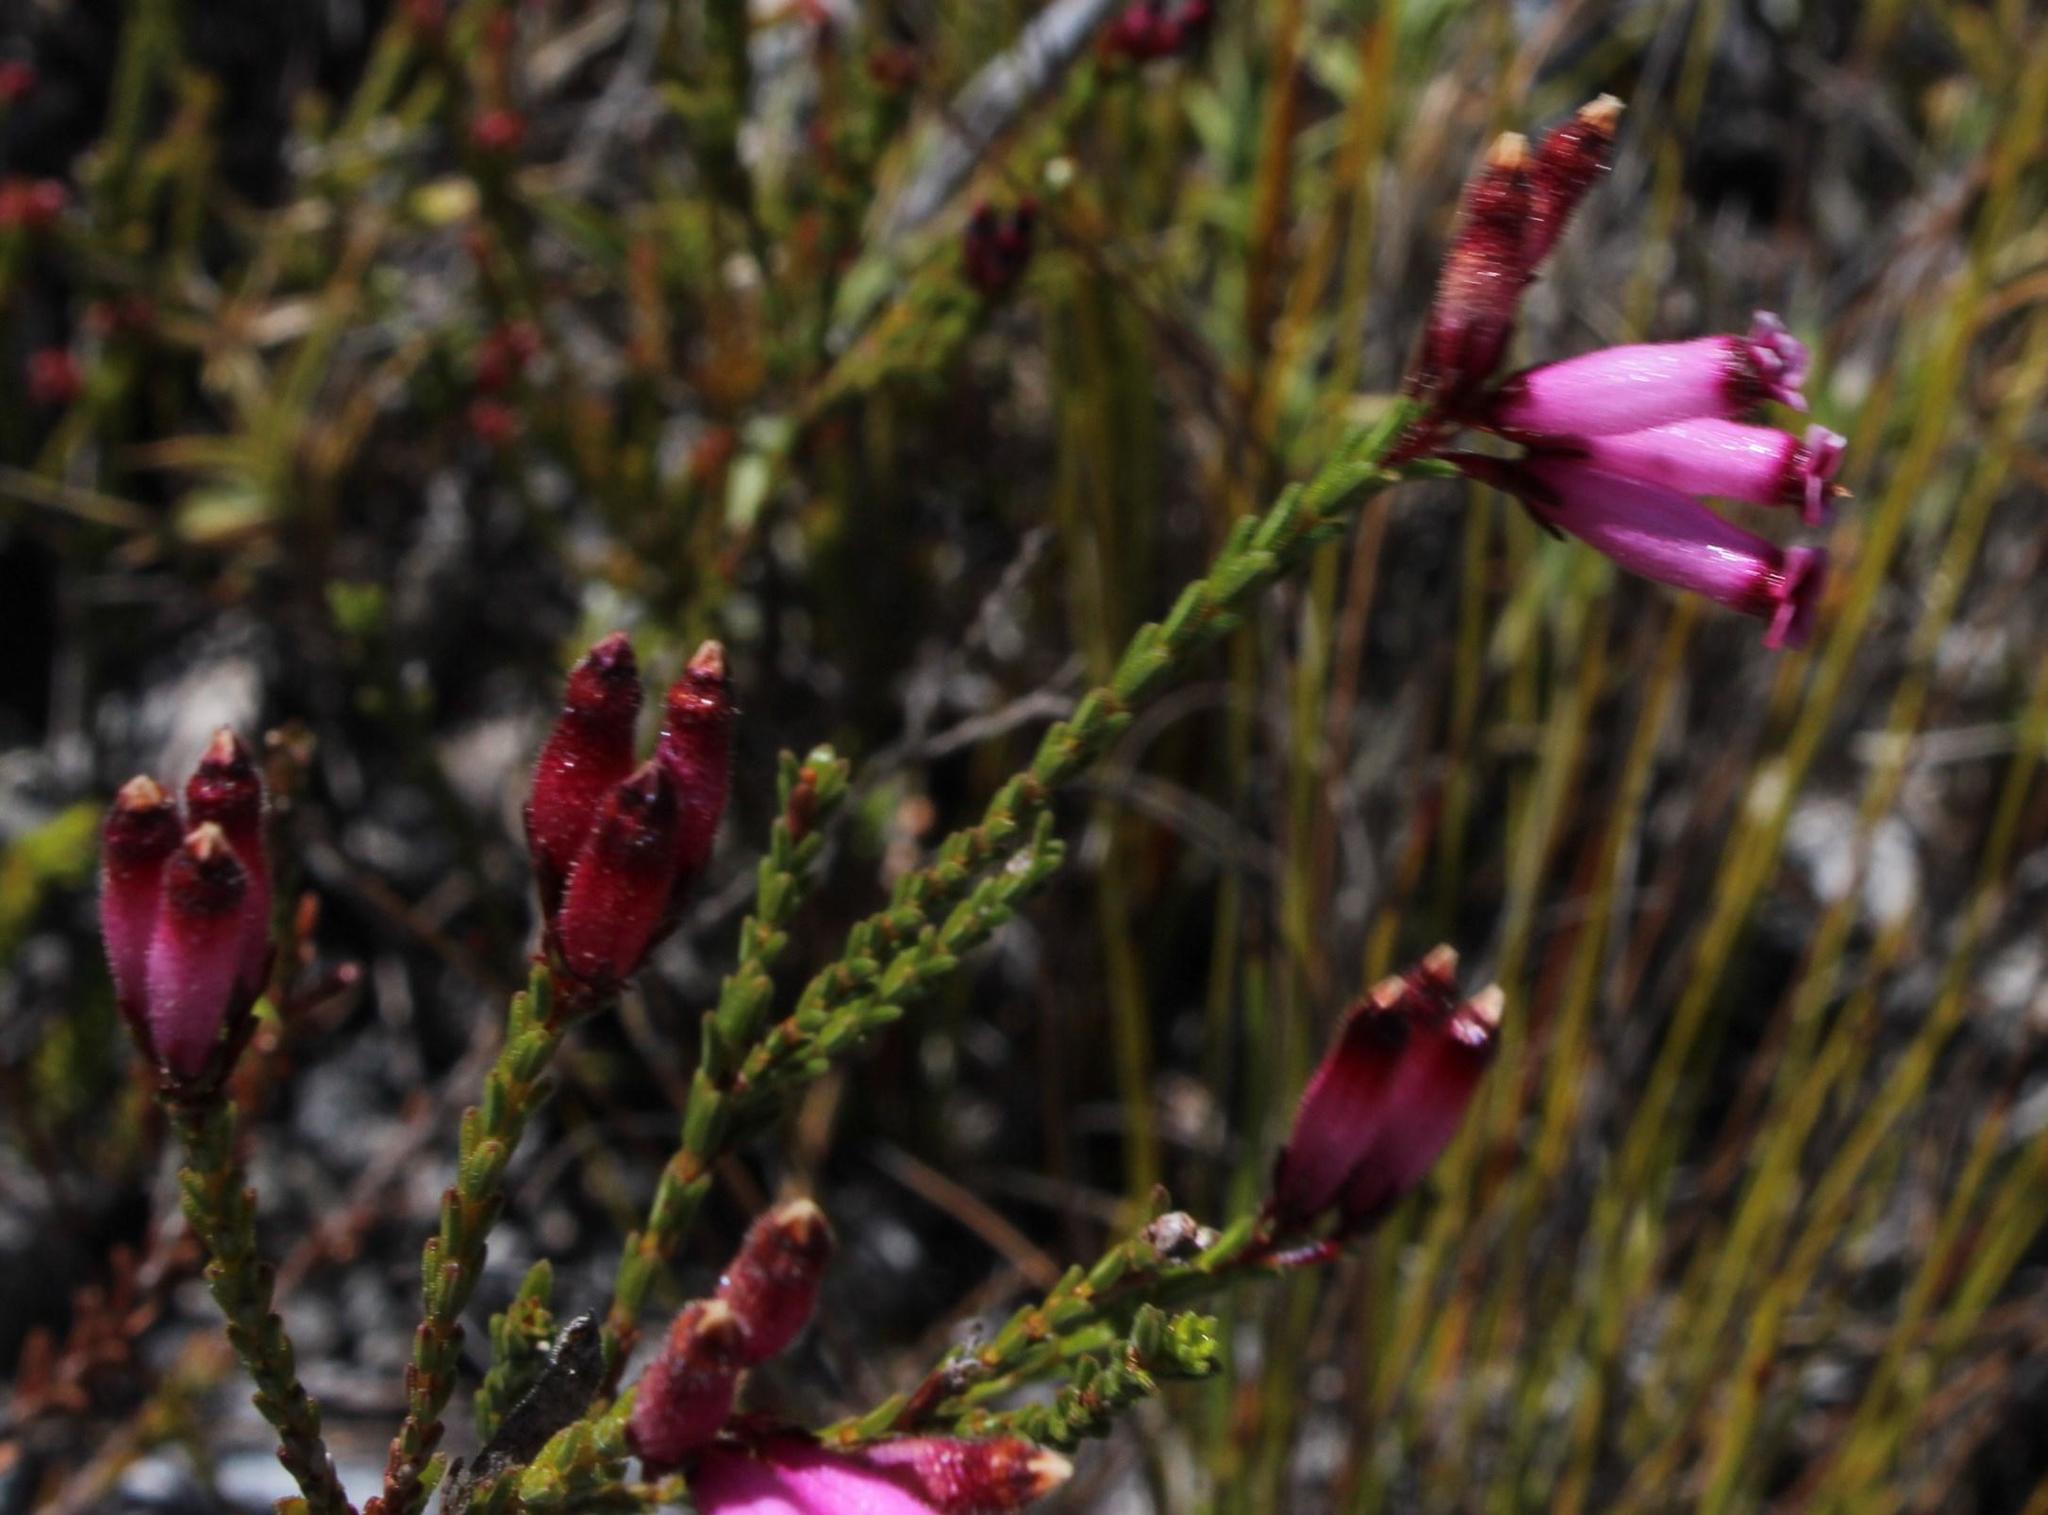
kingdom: Plantae
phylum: Tracheophyta
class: Magnoliopsida
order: Ericales
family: Ericaceae
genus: Erica
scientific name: Erica cristata
